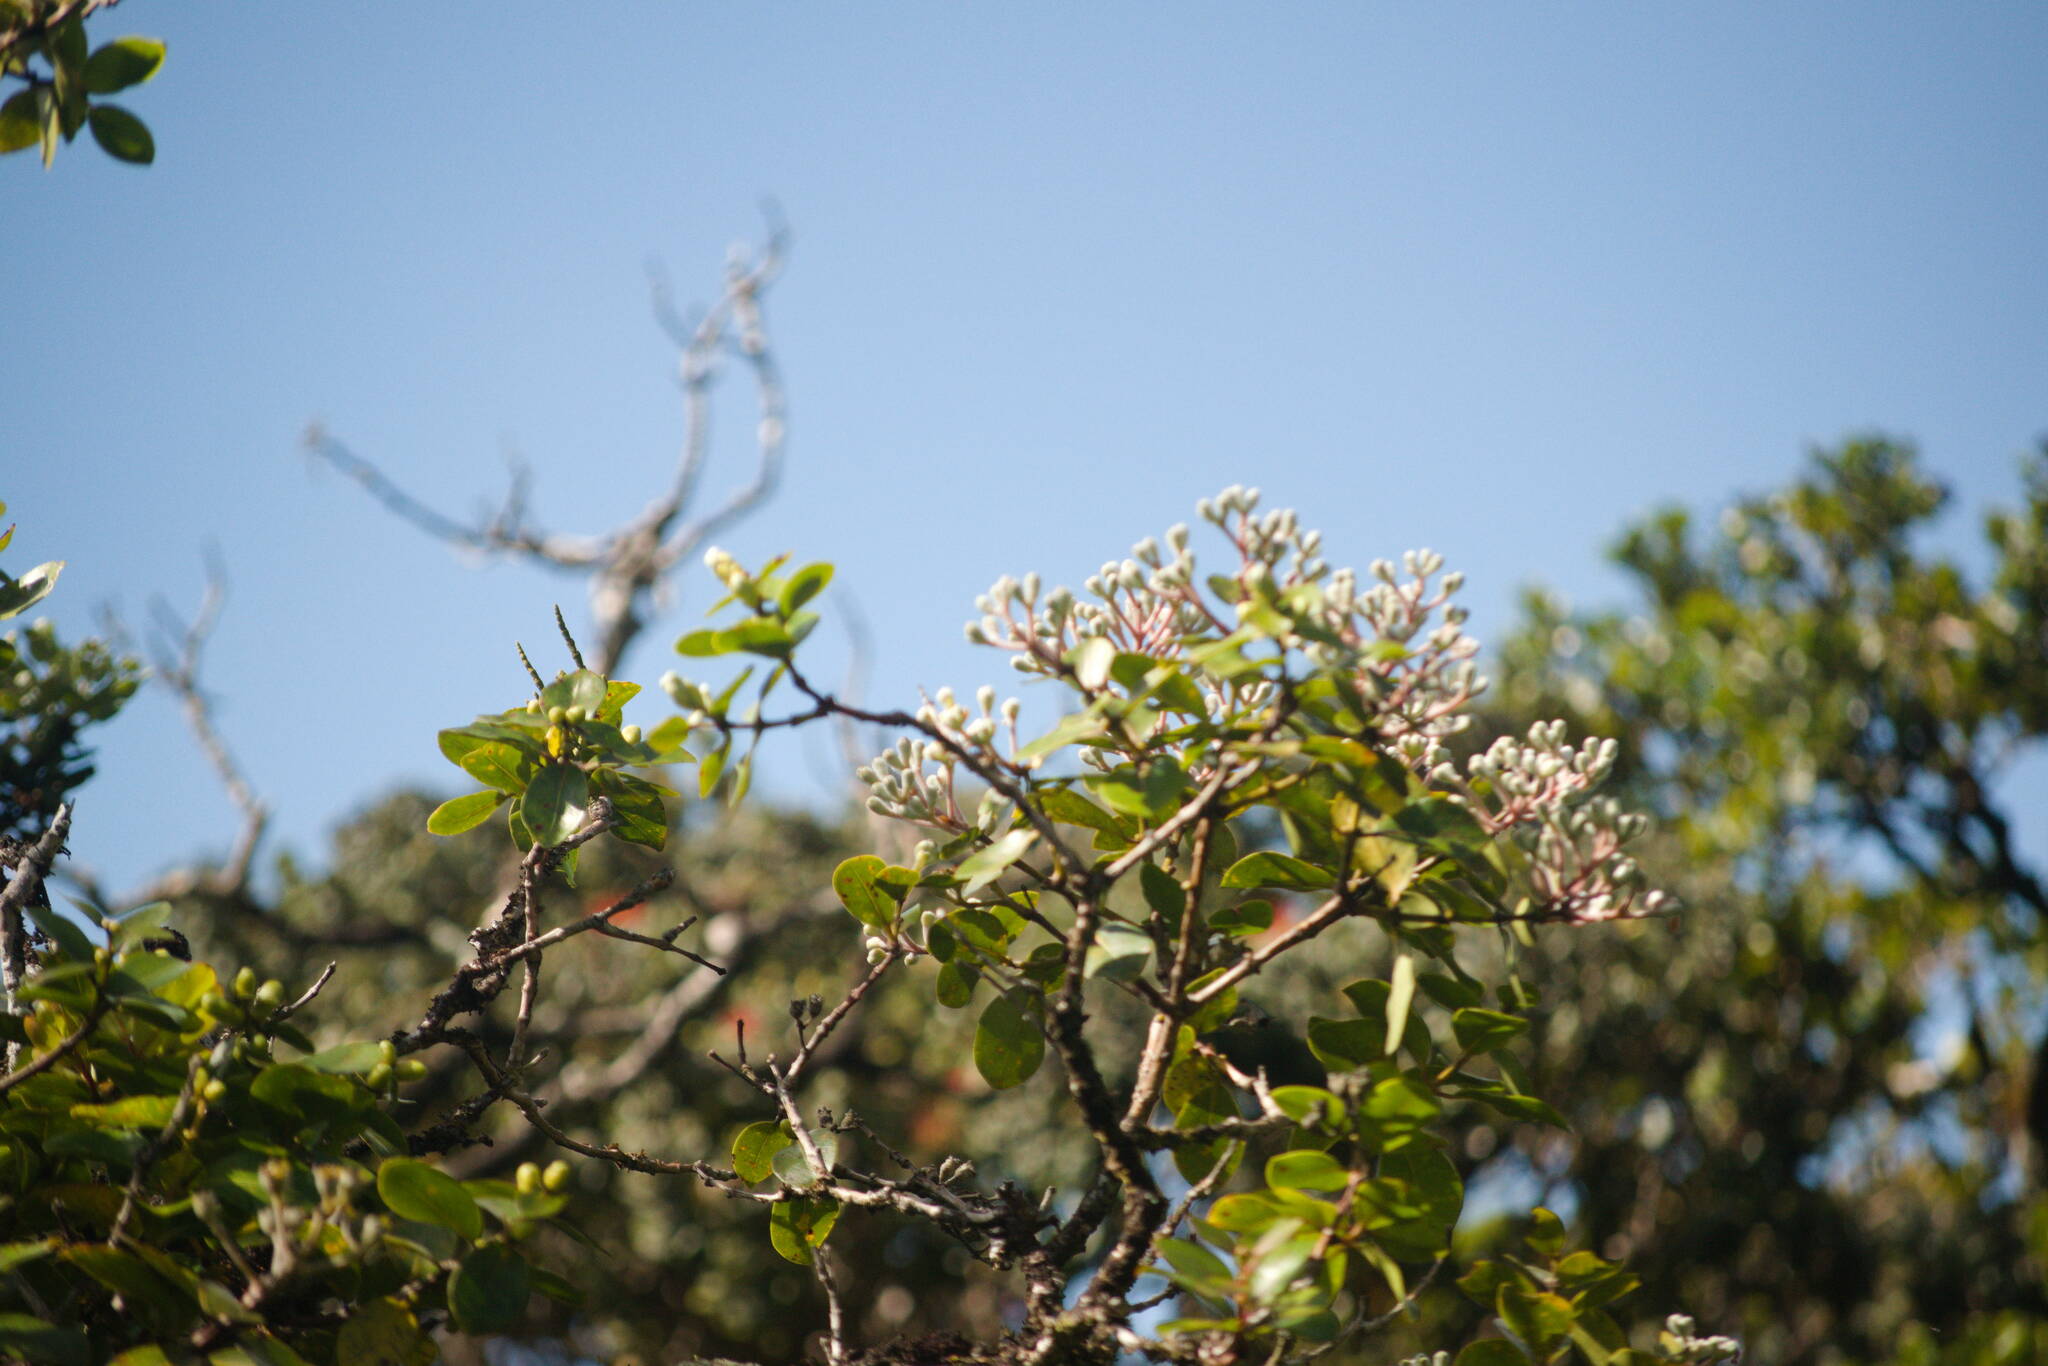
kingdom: Plantae
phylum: Tracheophyta
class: Magnoliopsida
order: Myrtales
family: Myrtaceae
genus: Metrosideros
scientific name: Metrosideros polymorpha
